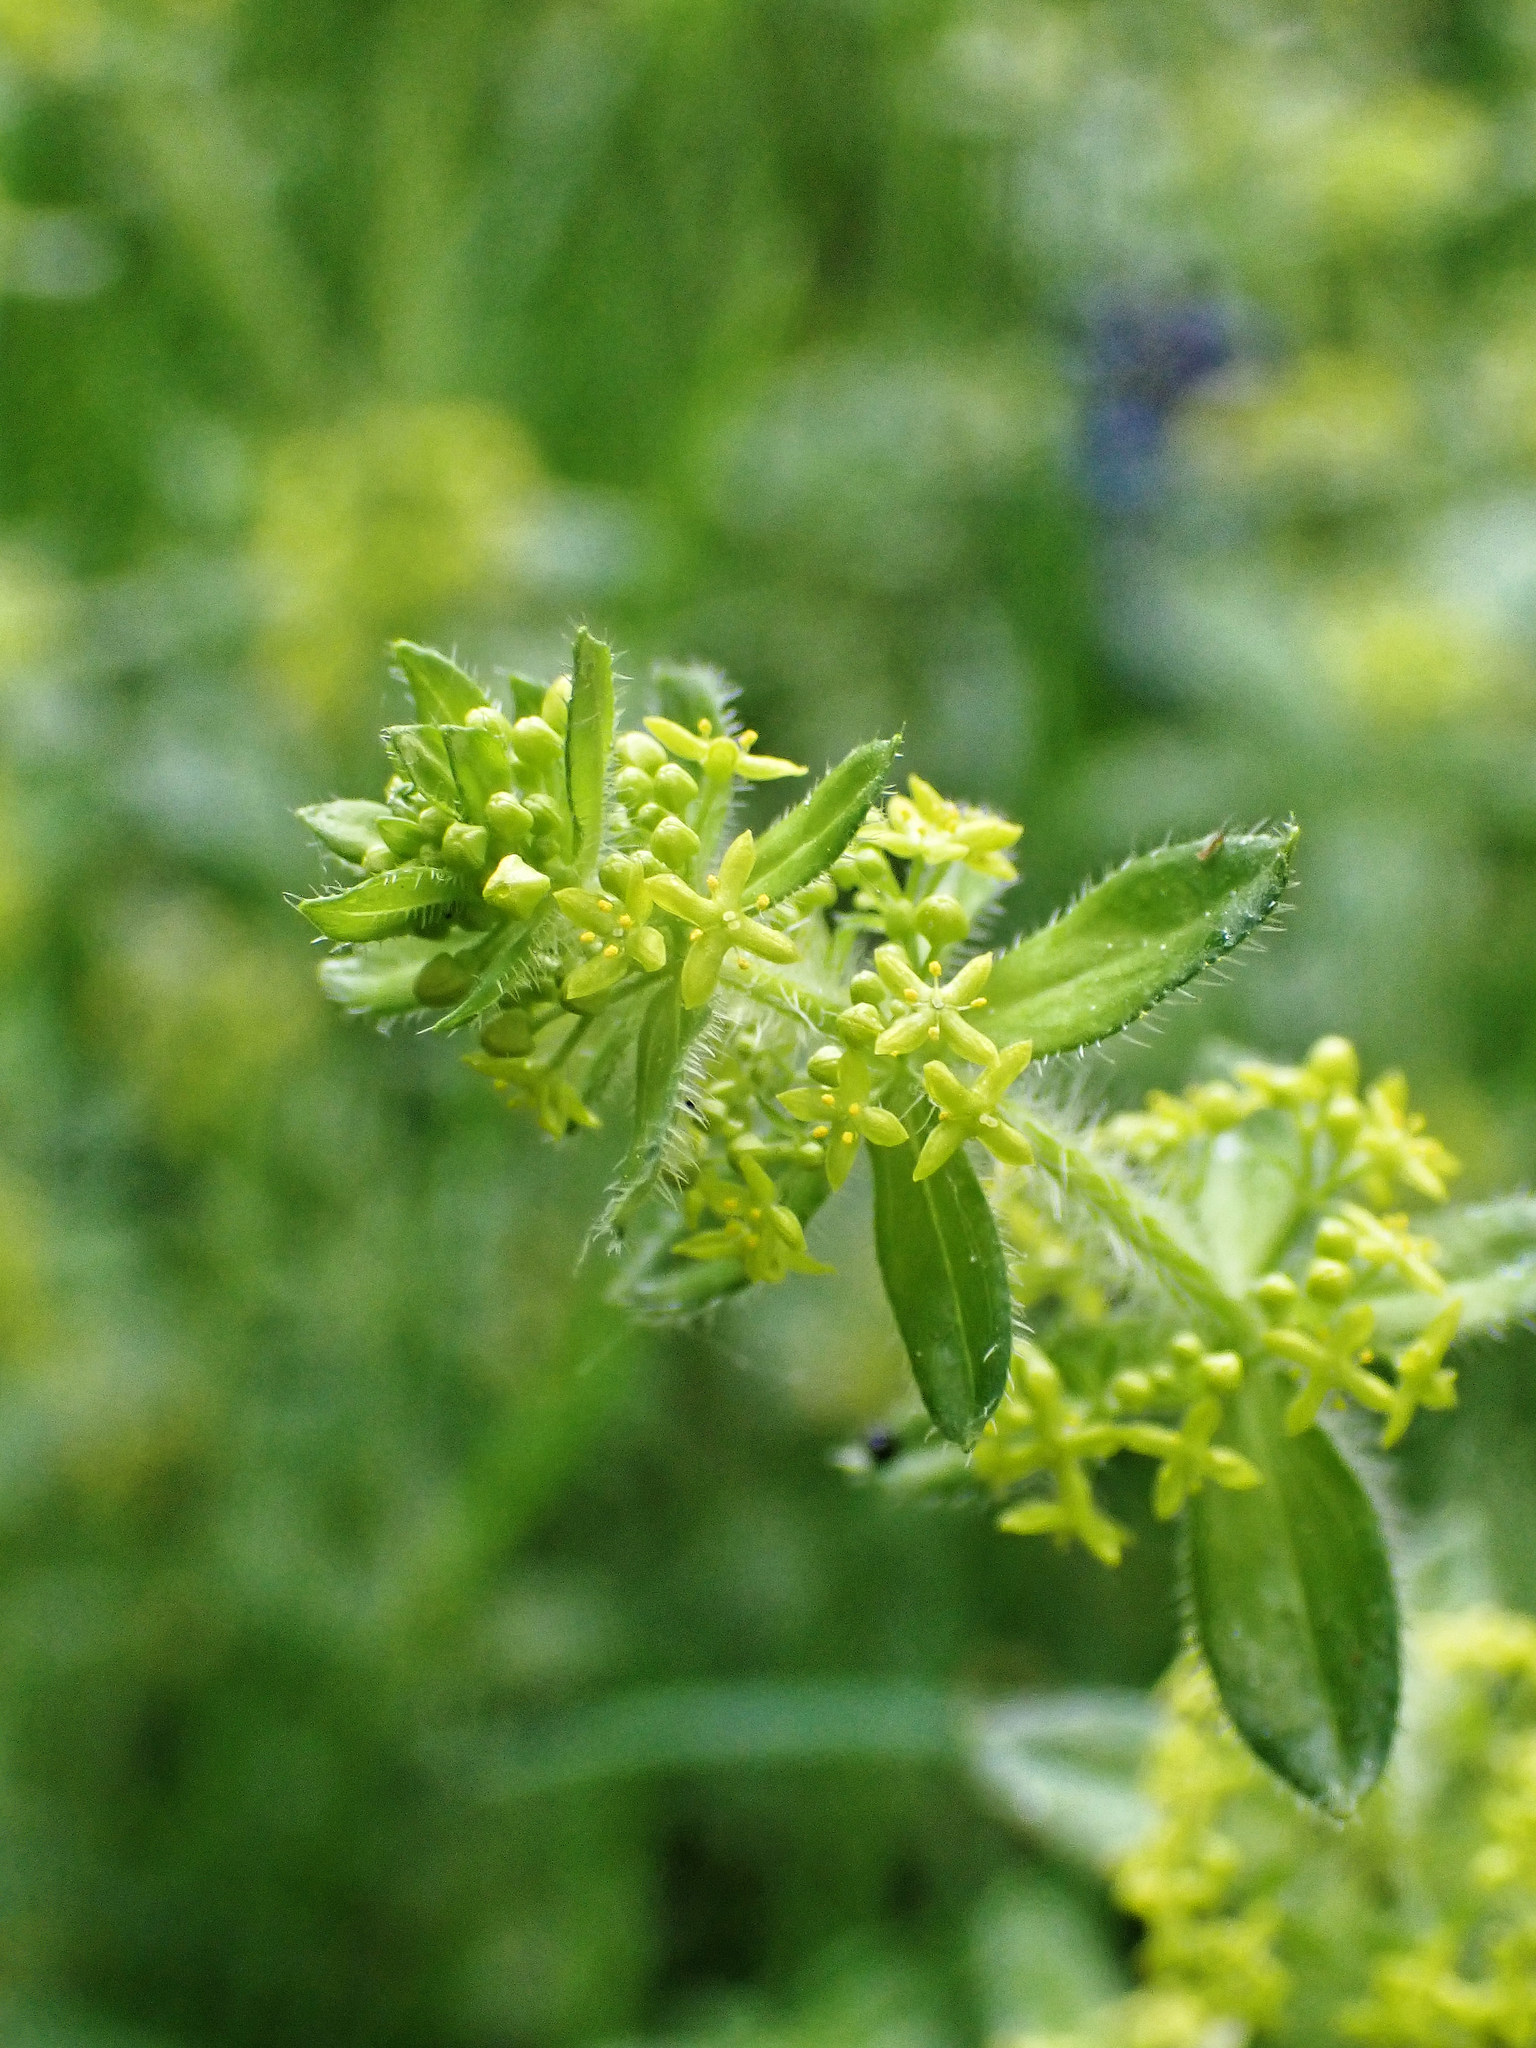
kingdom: Plantae
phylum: Tracheophyta
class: Magnoliopsida
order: Gentianales
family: Rubiaceae
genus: Cruciata
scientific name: Cruciata laevipes
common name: Crosswort
